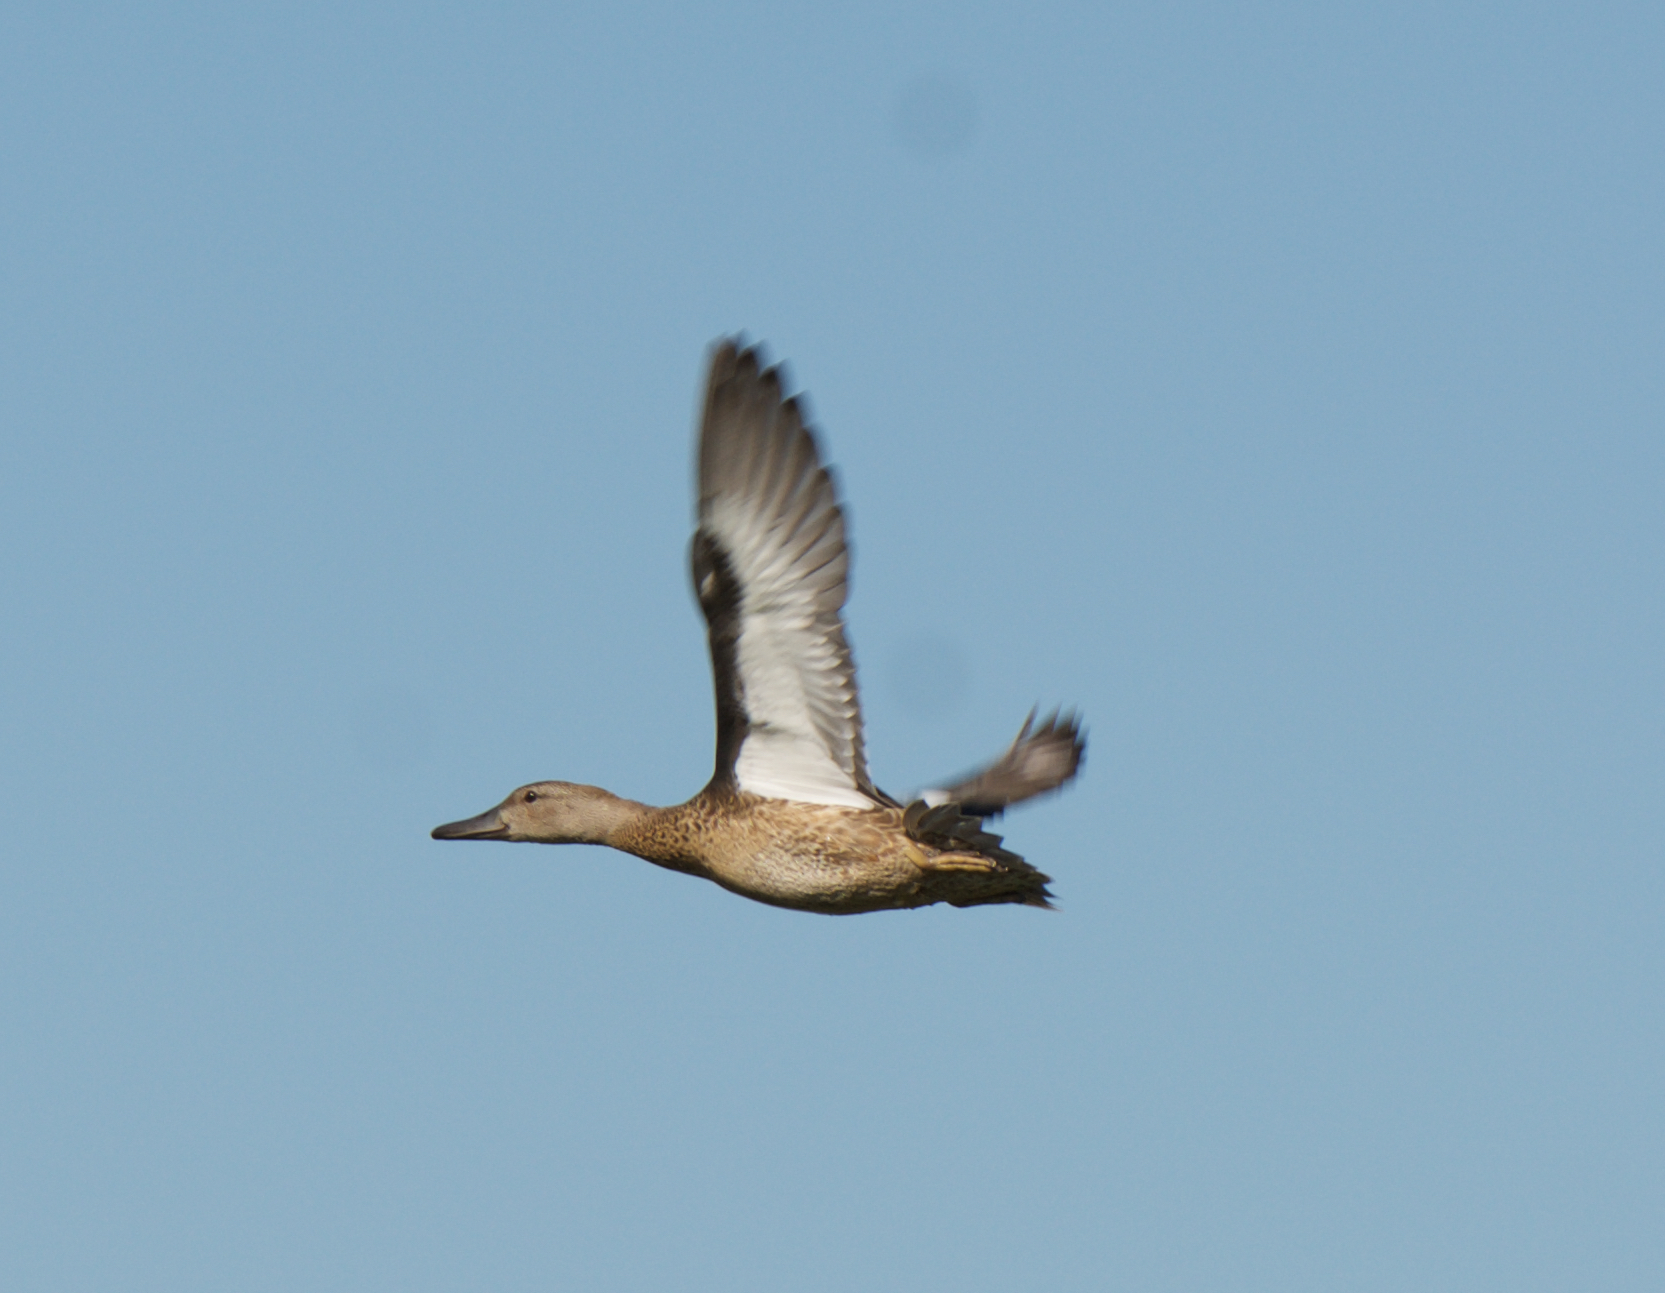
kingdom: Animalia
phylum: Chordata
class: Aves
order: Anseriformes
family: Anatidae
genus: Mareca
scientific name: Mareca strepera
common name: Gadwall
